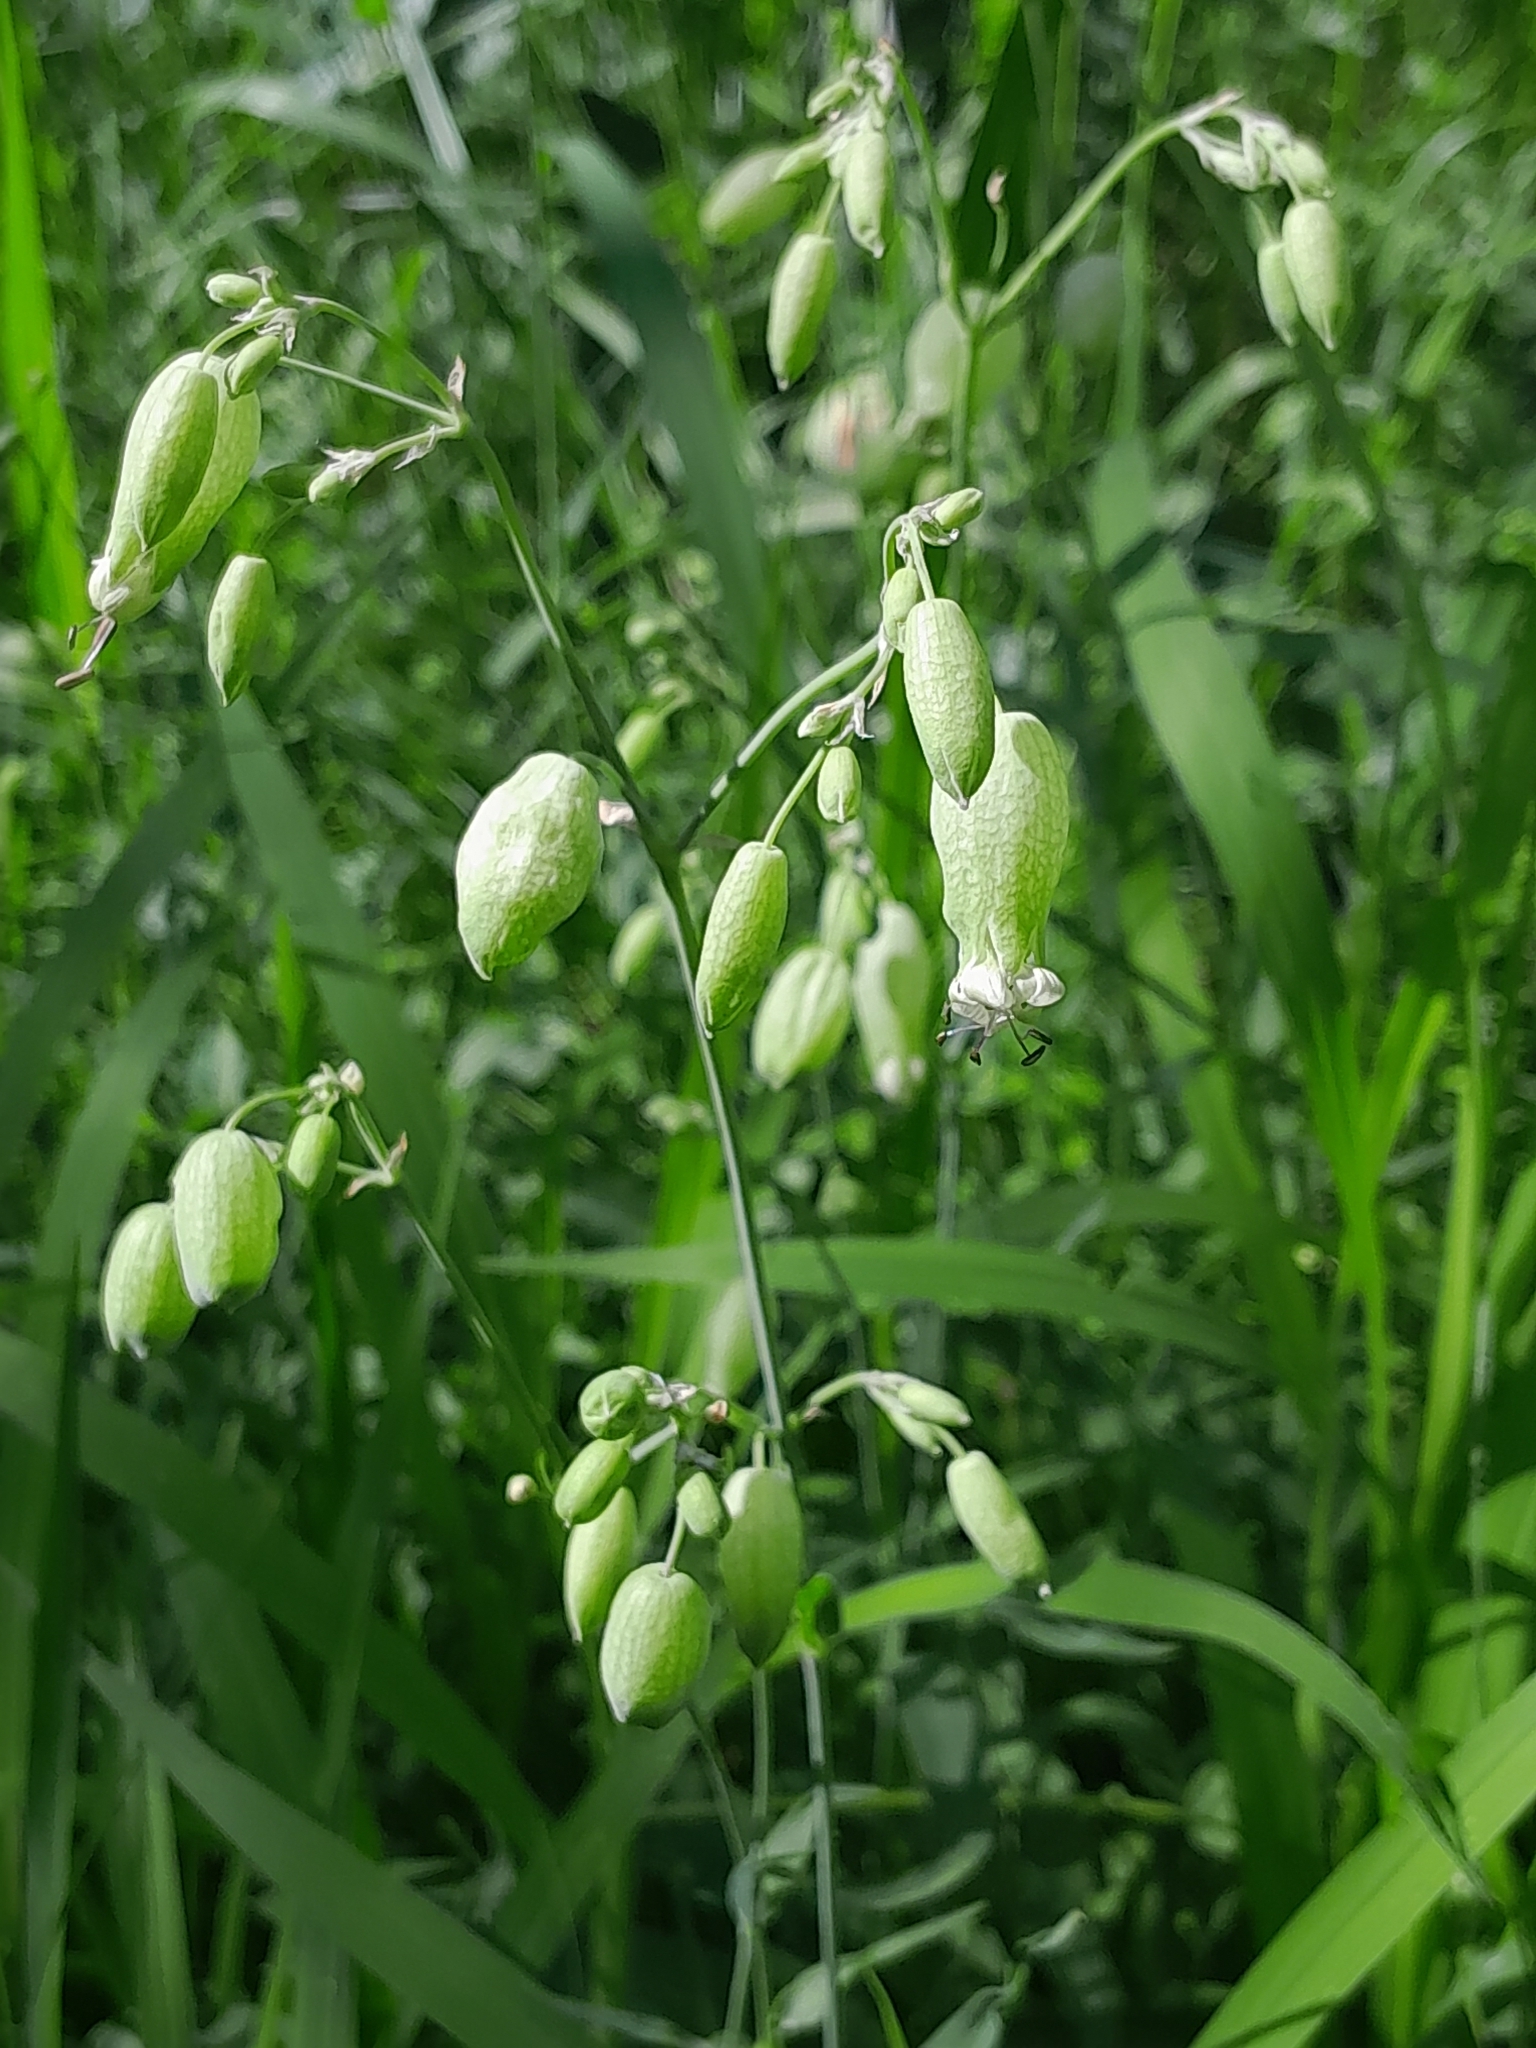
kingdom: Plantae
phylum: Tracheophyta
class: Magnoliopsida
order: Caryophyllales
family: Caryophyllaceae
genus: Silene
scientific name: Silene vulgaris
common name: Bladder campion
